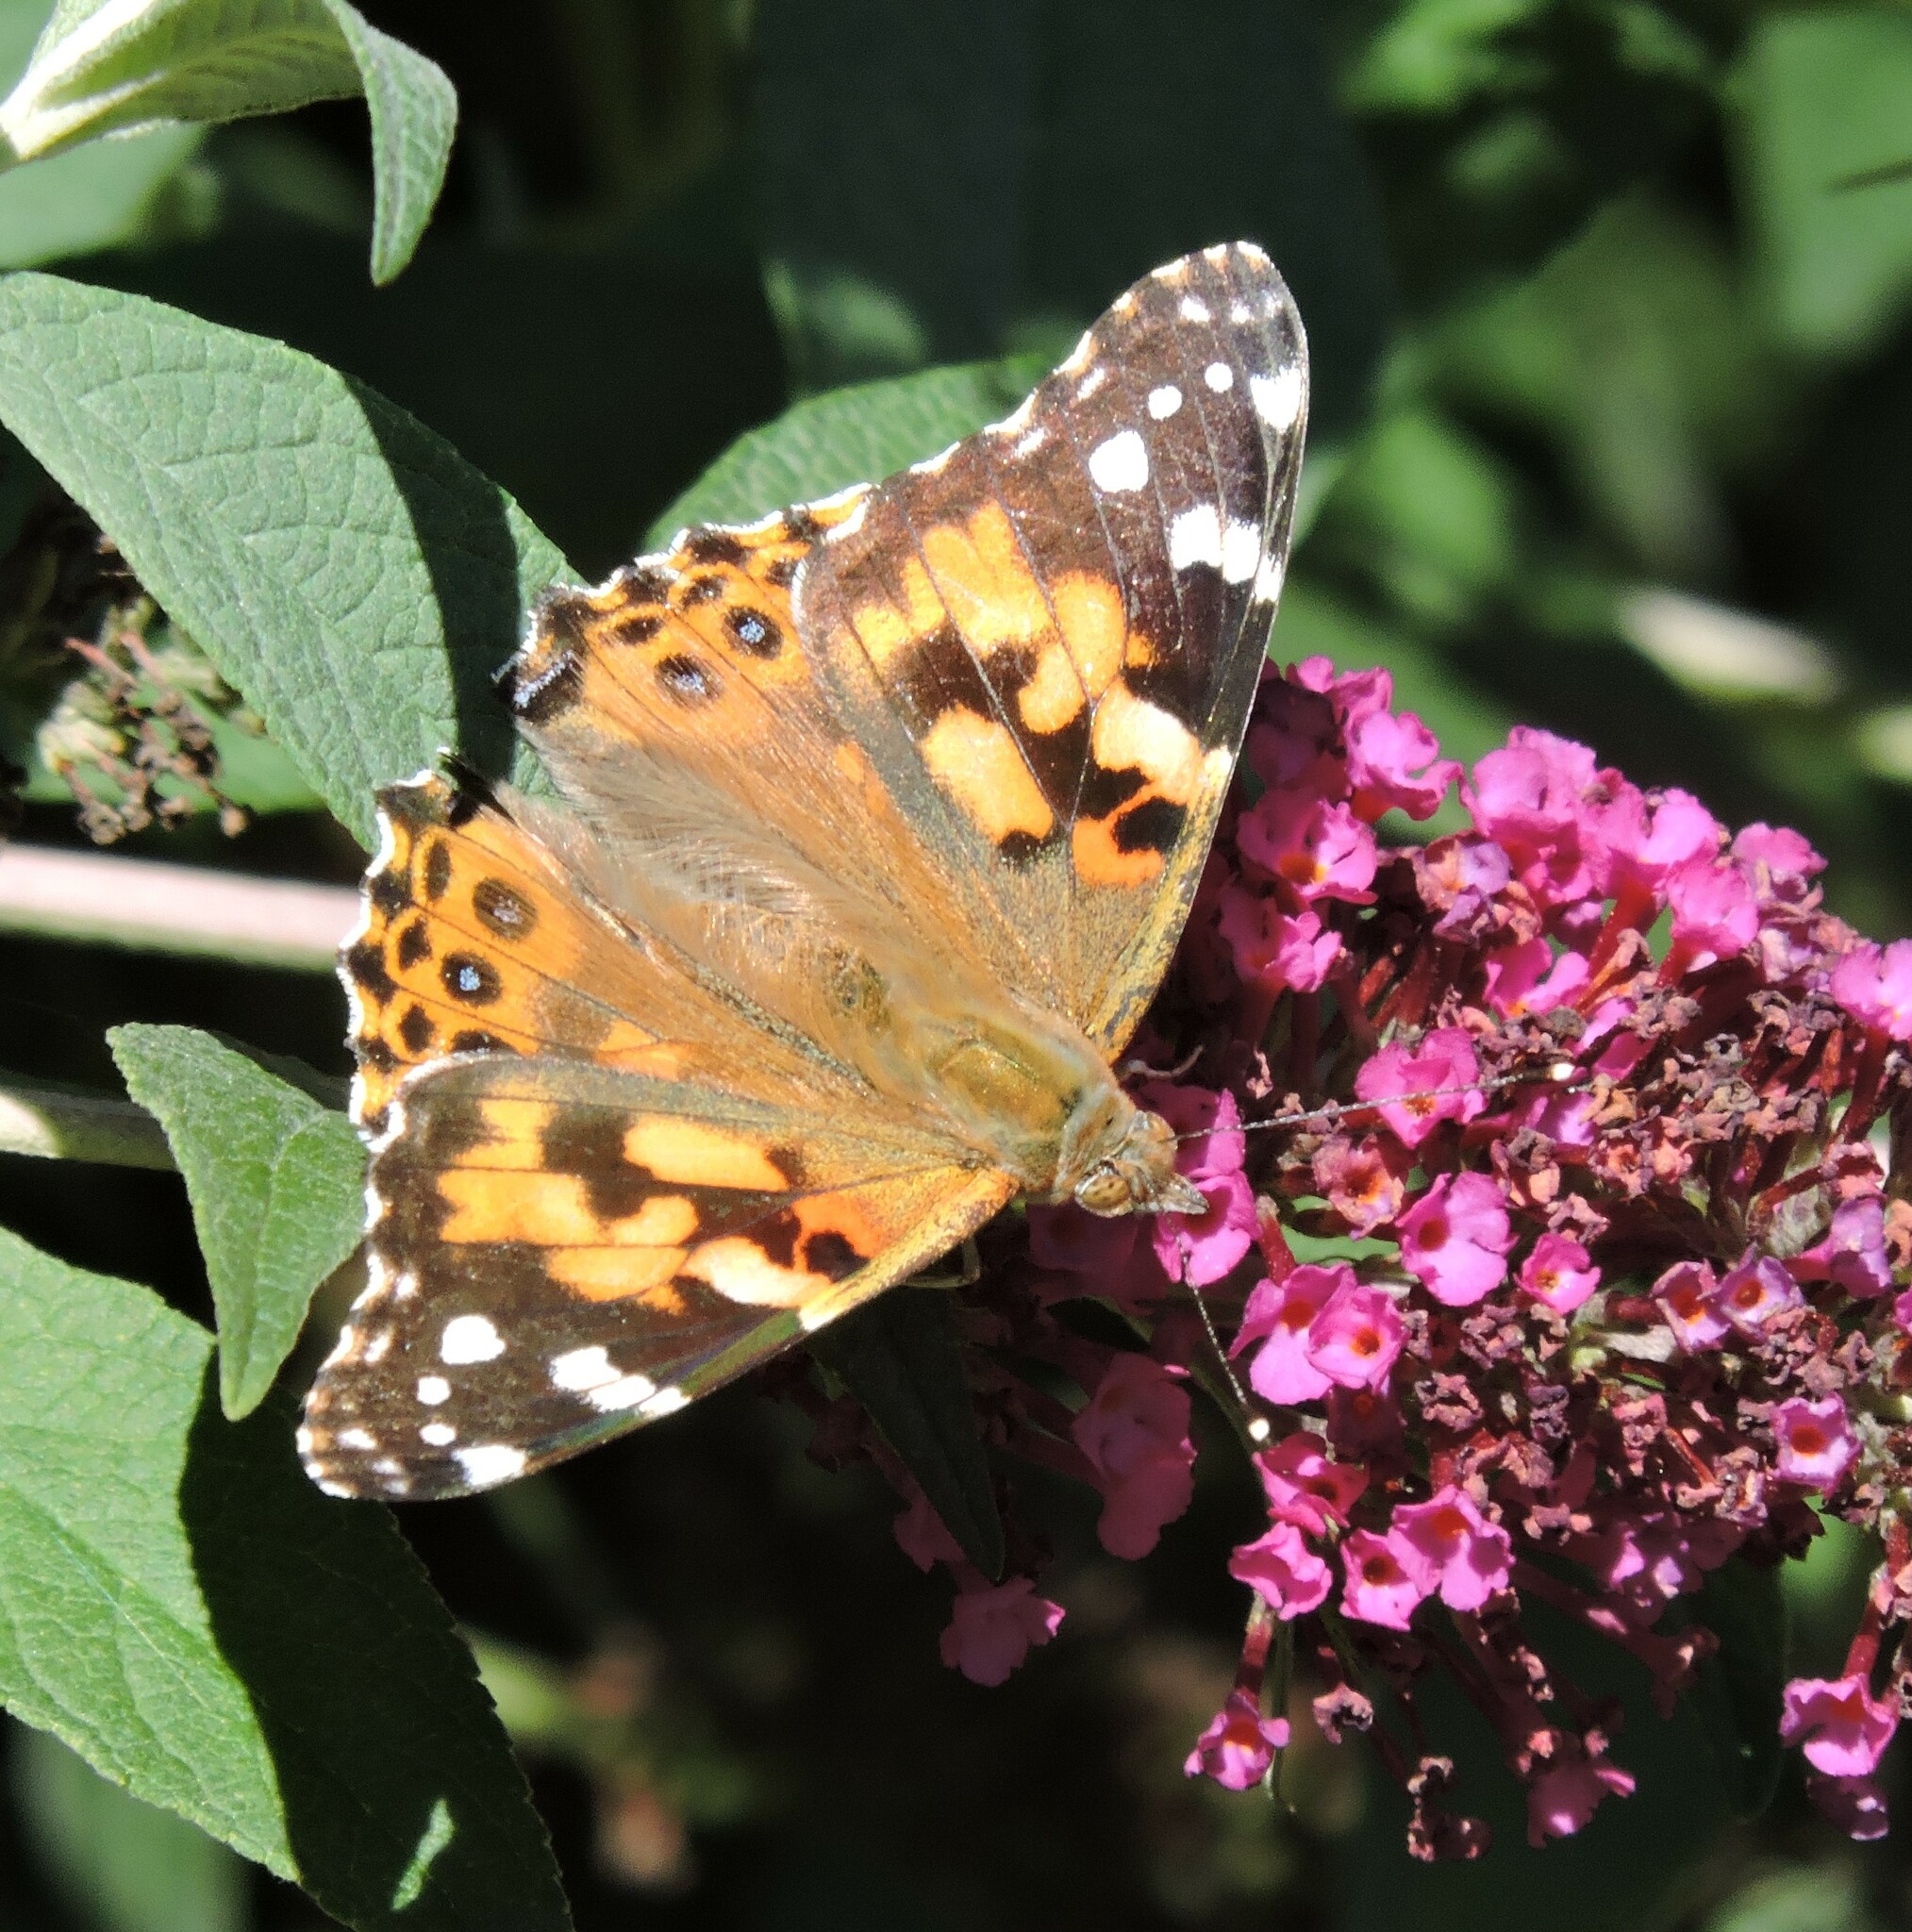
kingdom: Animalia
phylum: Arthropoda
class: Insecta
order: Lepidoptera
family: Nymphalidae
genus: Vanessa
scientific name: Vanessa cardui
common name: Painted lady
